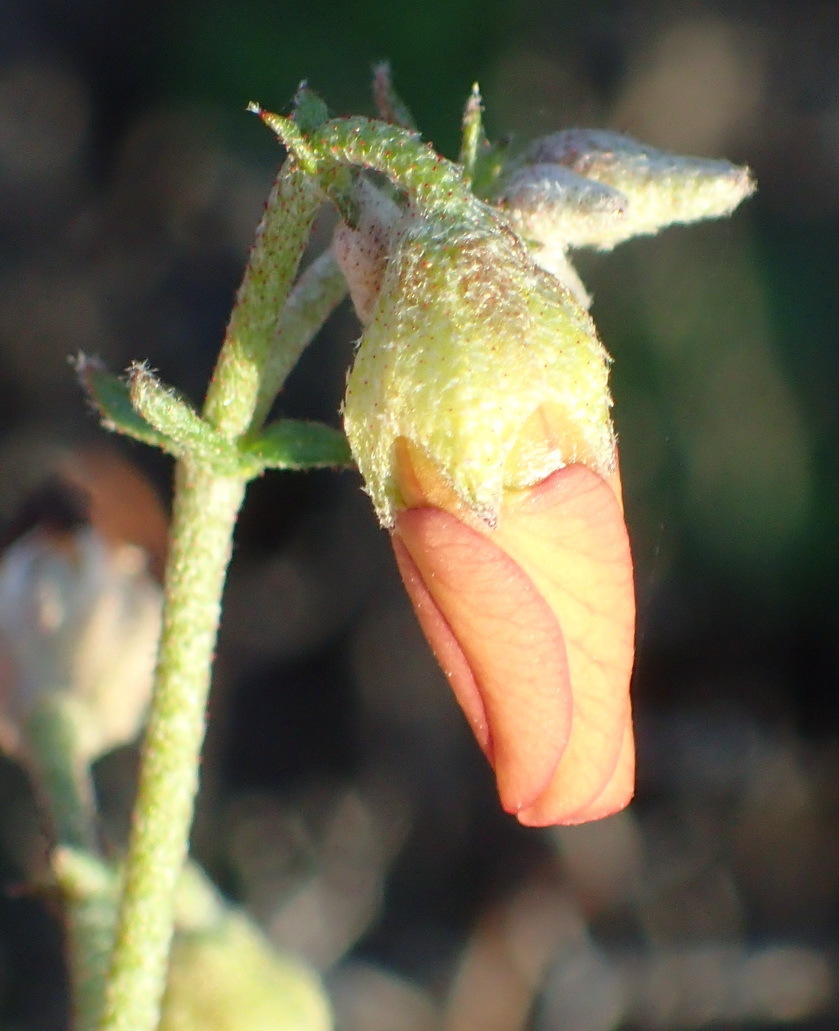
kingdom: Plantae
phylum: Tracheophyta
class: Magnoliopsida
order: Malvales
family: Malvaceae
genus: Hermannia
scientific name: Hermannia pulverata
